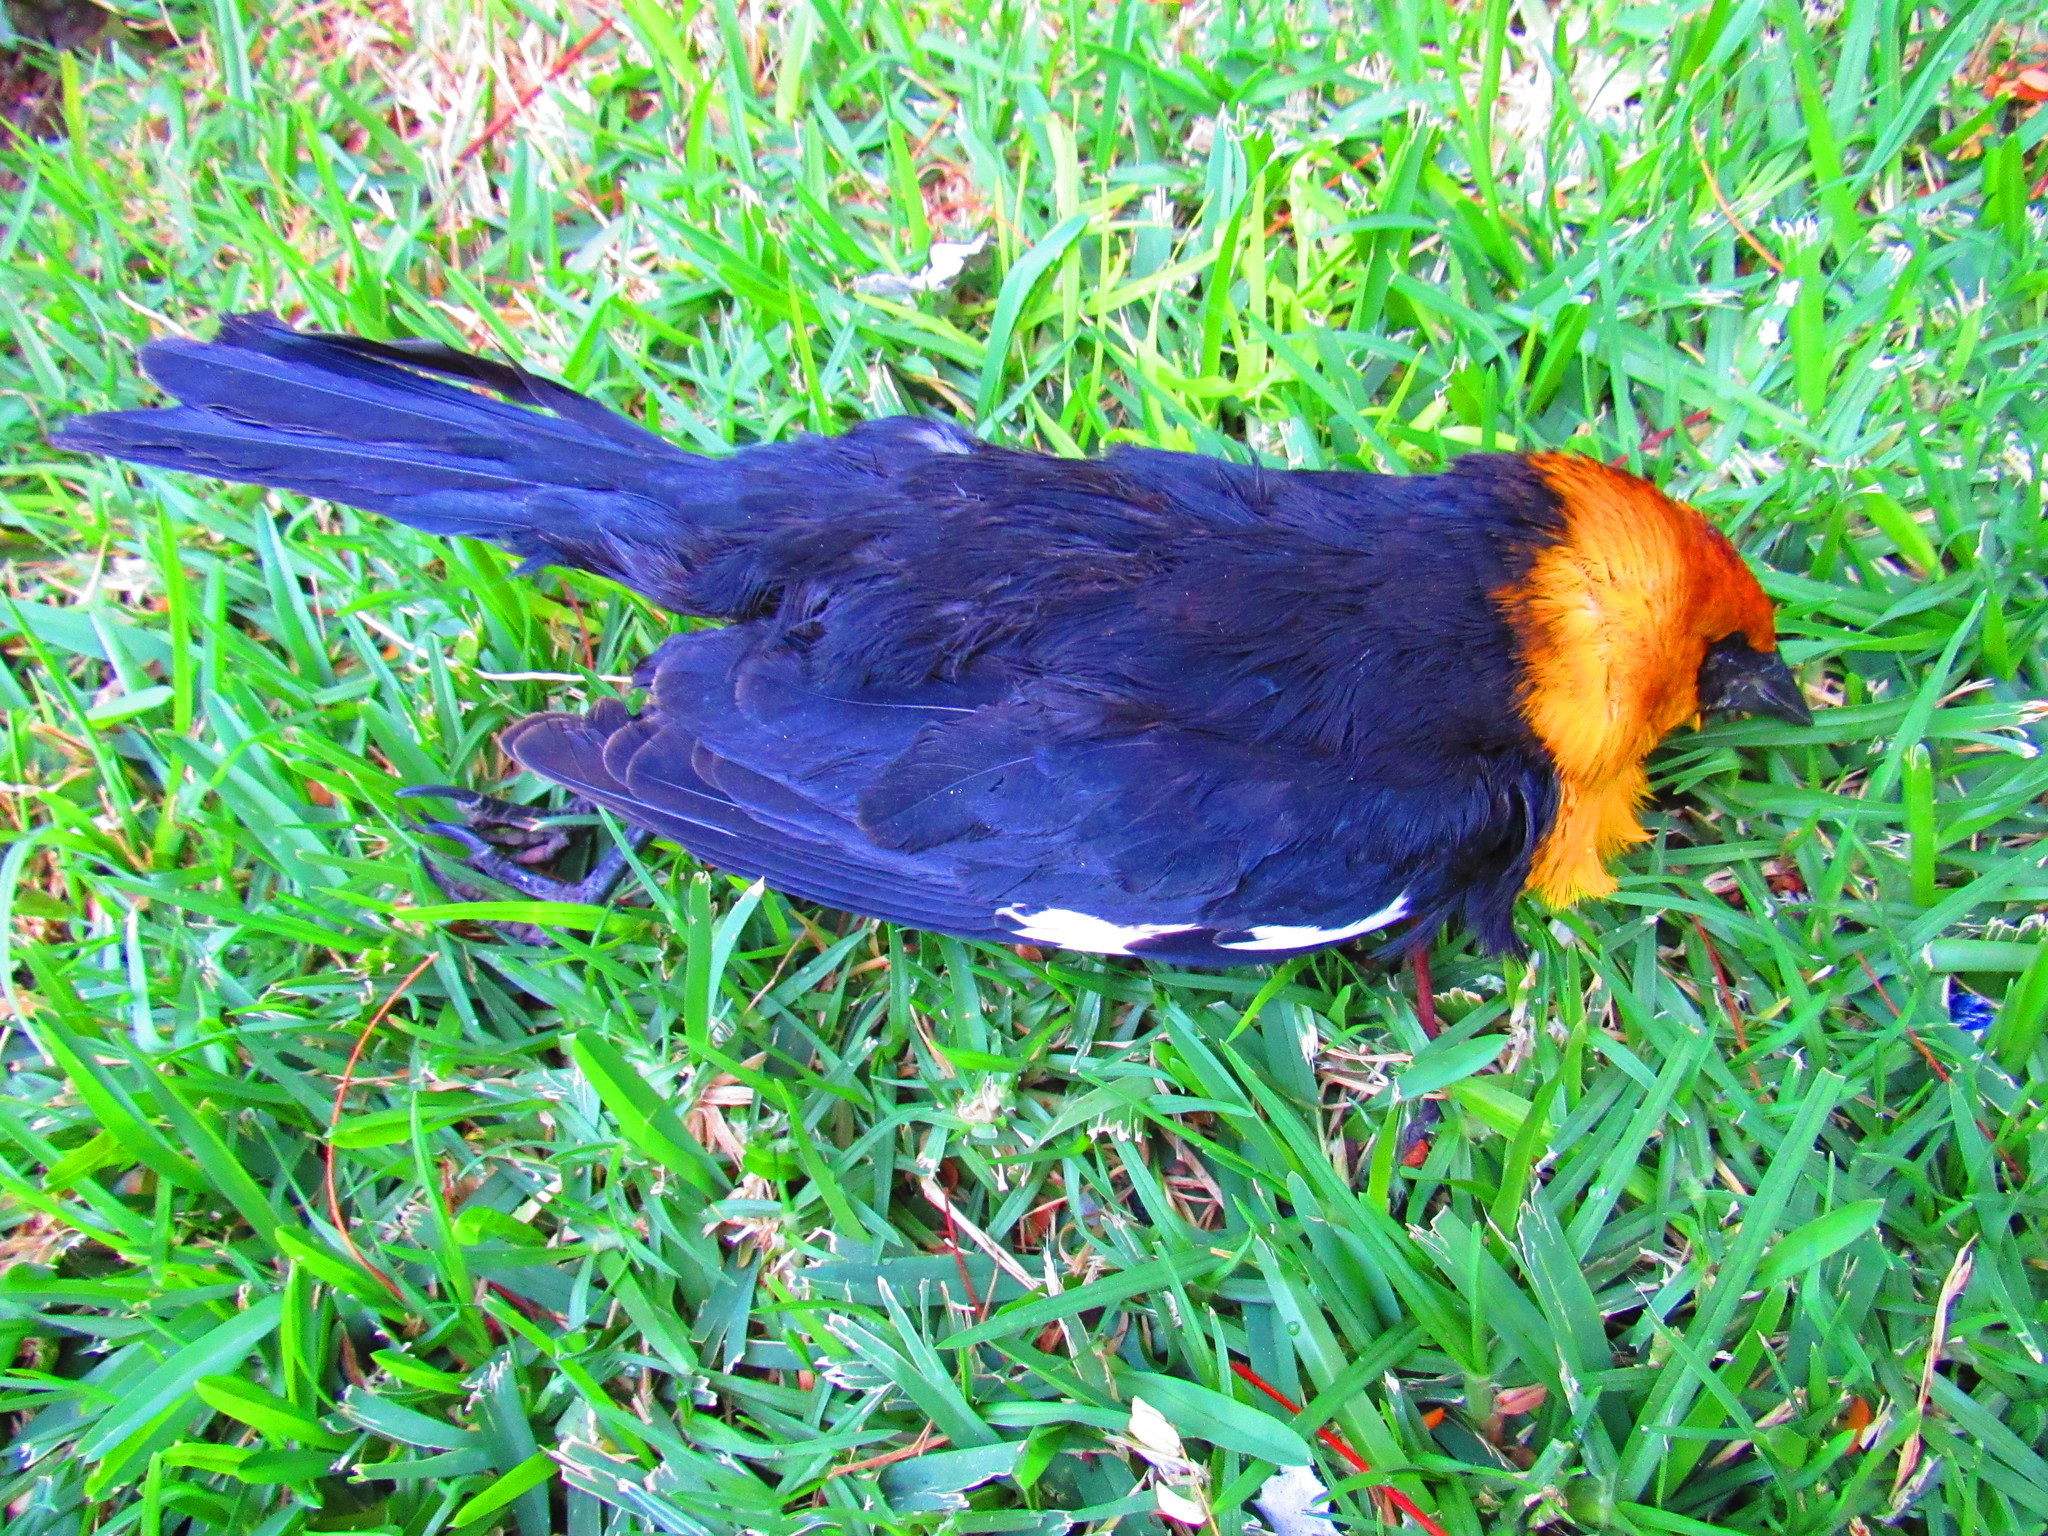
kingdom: Animalia
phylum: Chordata
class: Aves
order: Passeriformes
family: Icteridae
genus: Xanthocephalus
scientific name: Xanthocephalus xanthocephalus
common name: Yellow-headed blackbird
